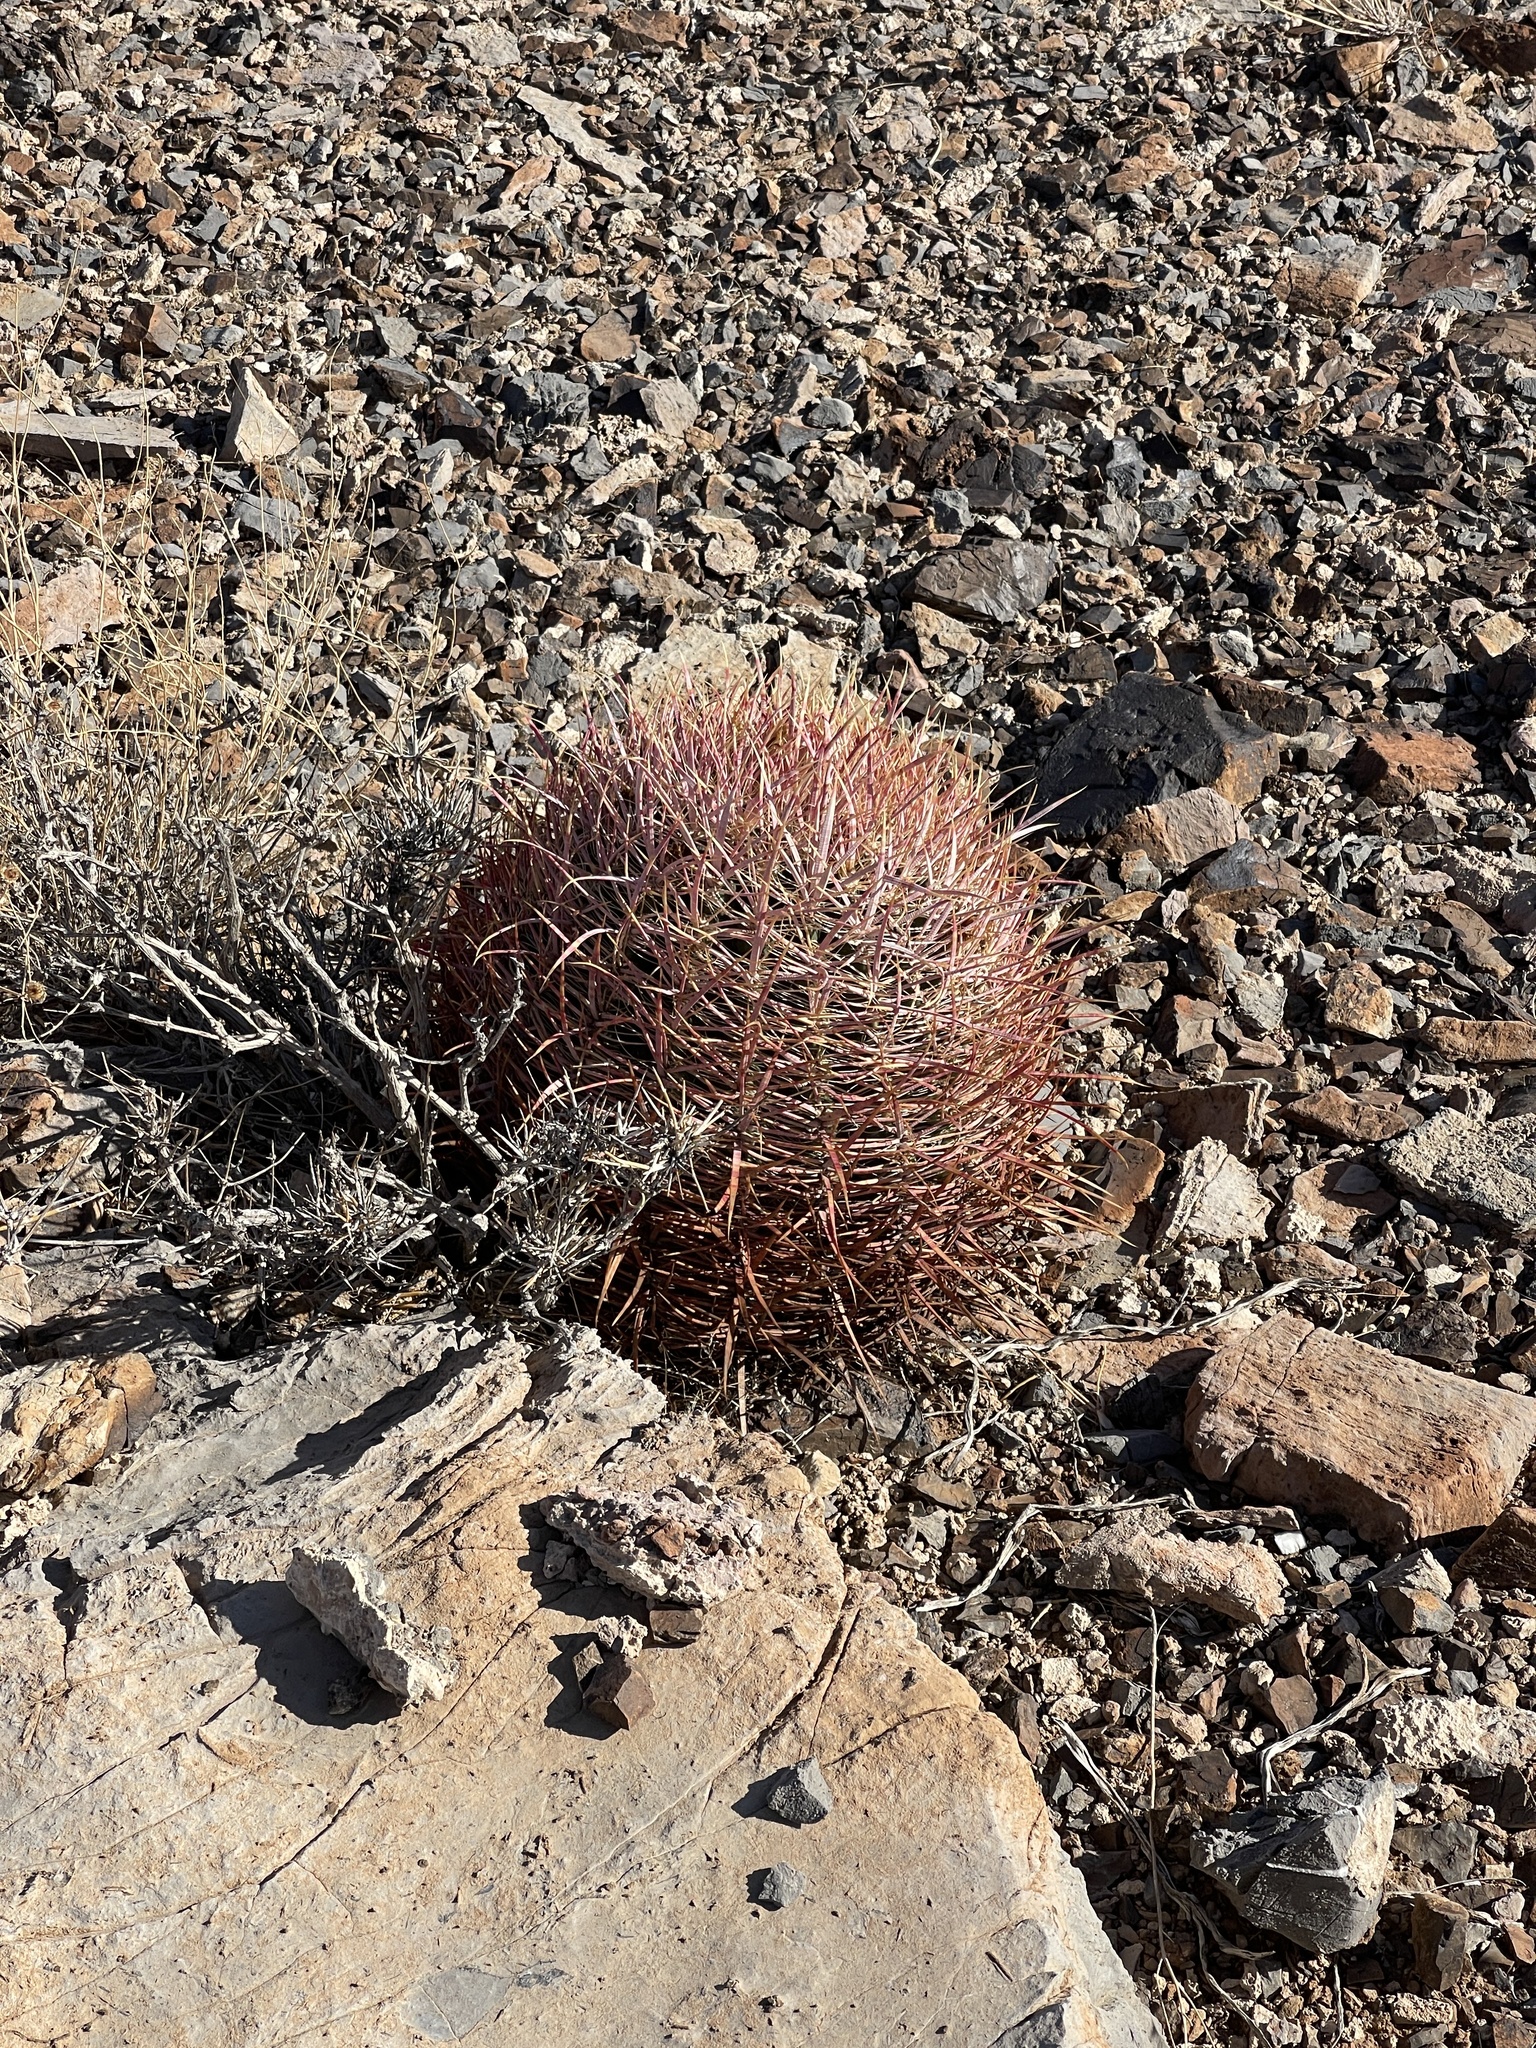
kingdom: Plantae
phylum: Tracheophyta
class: Magnoliopsida
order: Caryophyllales
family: Cactaceae
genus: Ferocactus
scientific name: Ferocactus cylindraceus
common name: California barrel cactus
